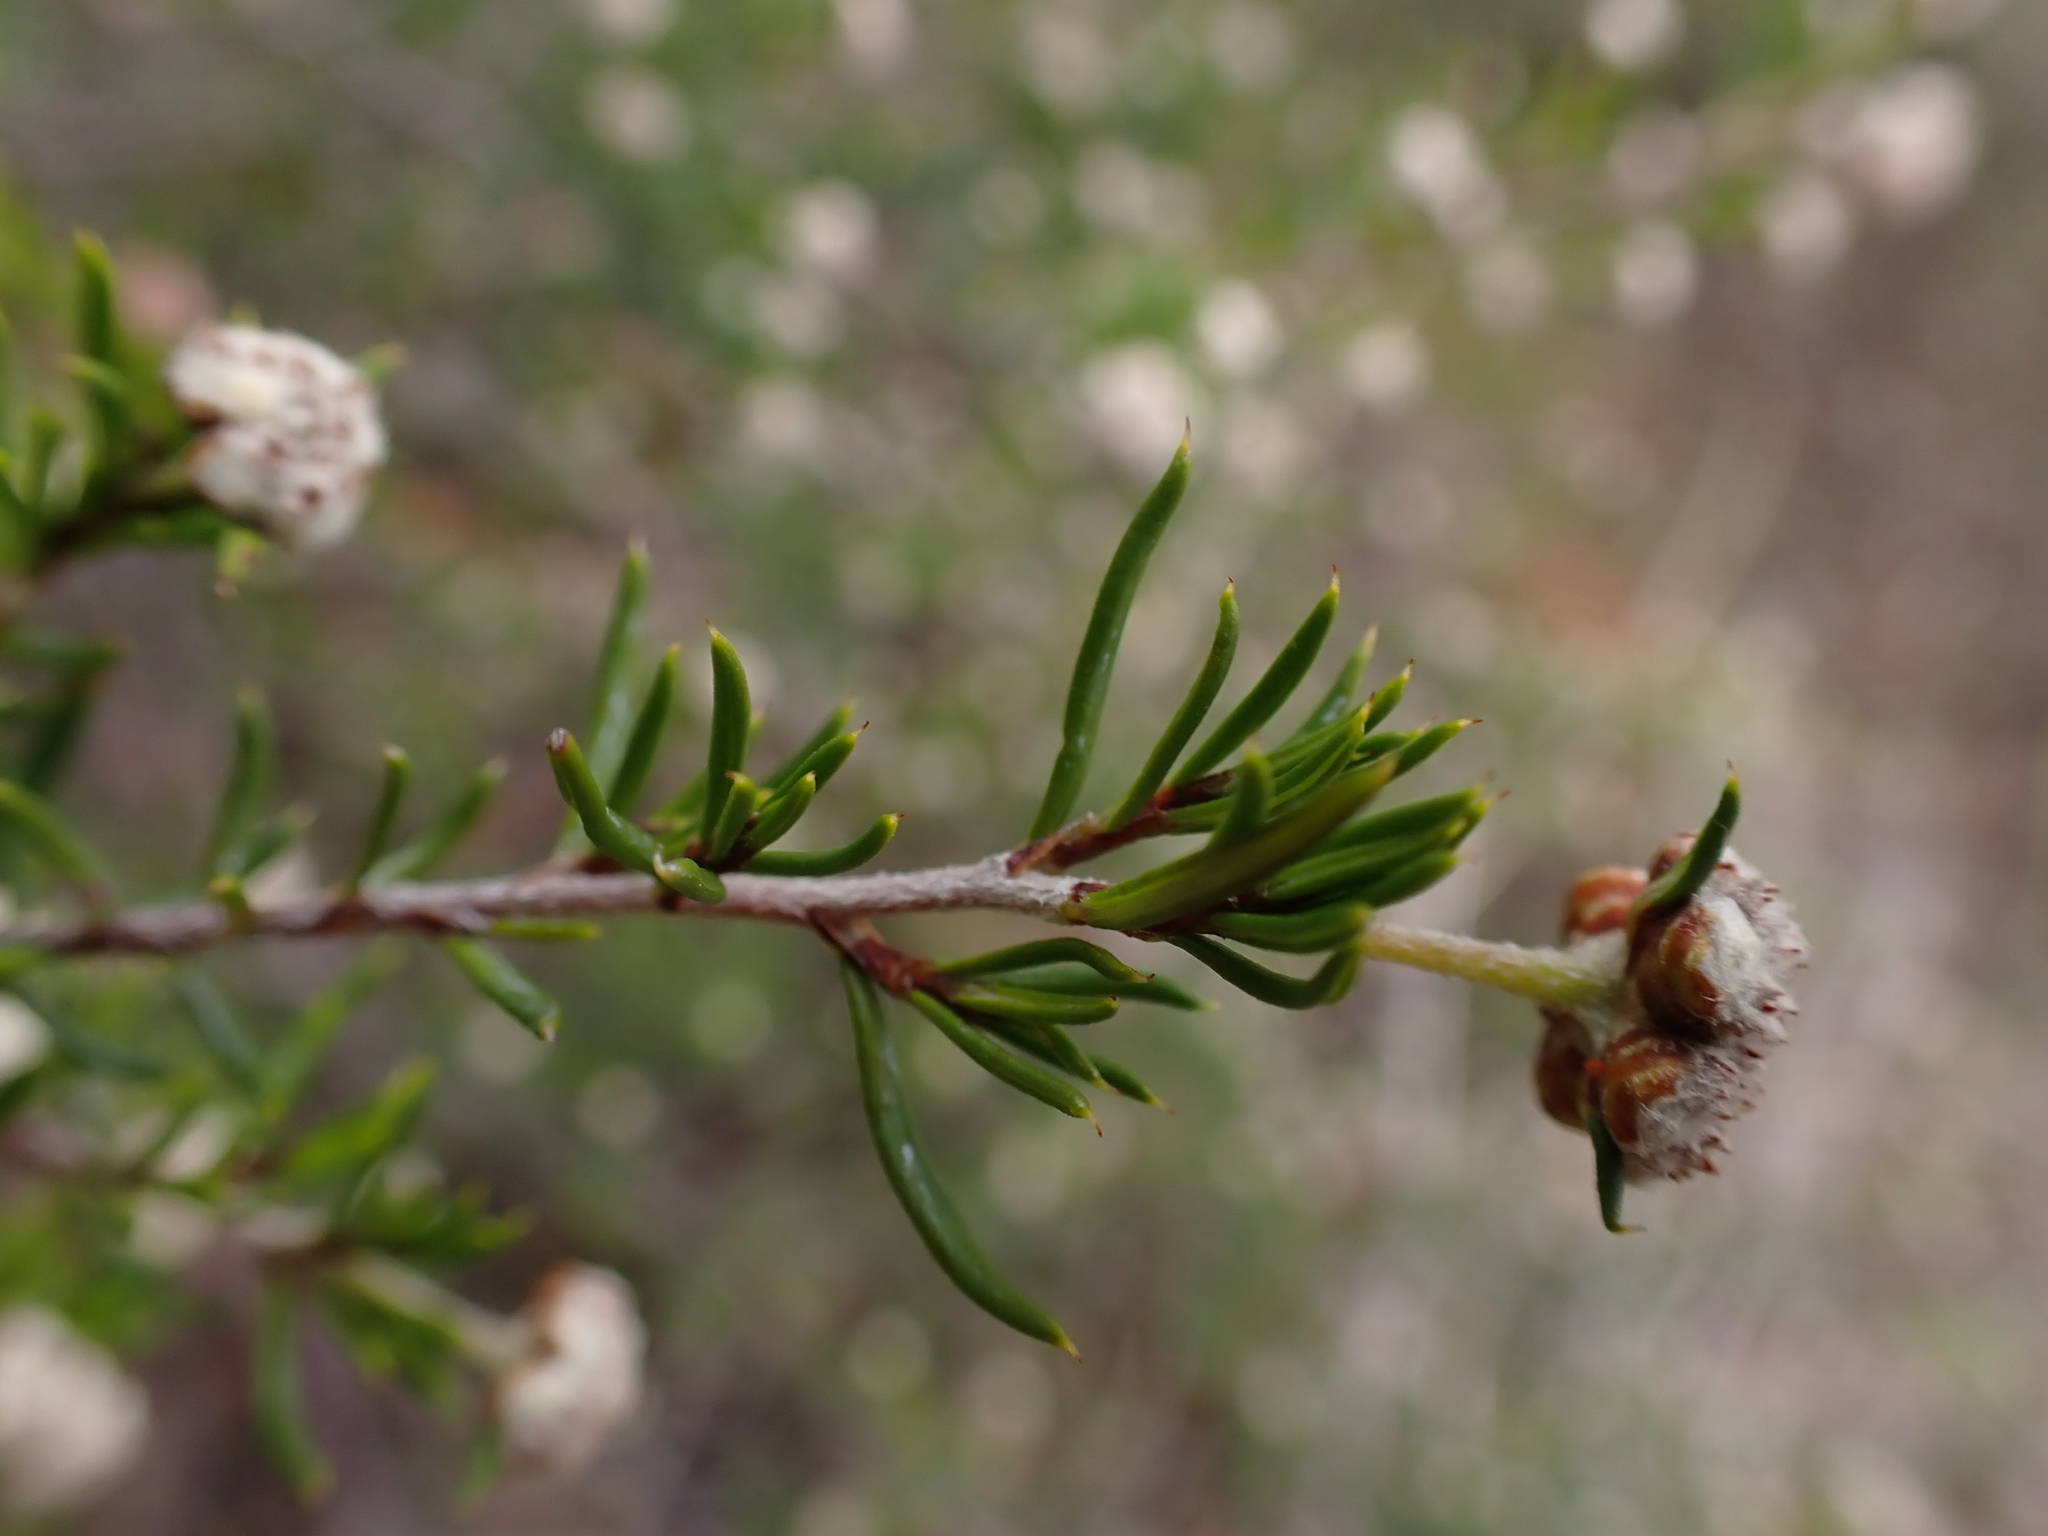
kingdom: Plantae
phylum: Tracheophyta
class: Magnoliopsida
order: Rosales
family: Rhamnaceae
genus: Spyridium
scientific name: Spyridium eriocephalum
